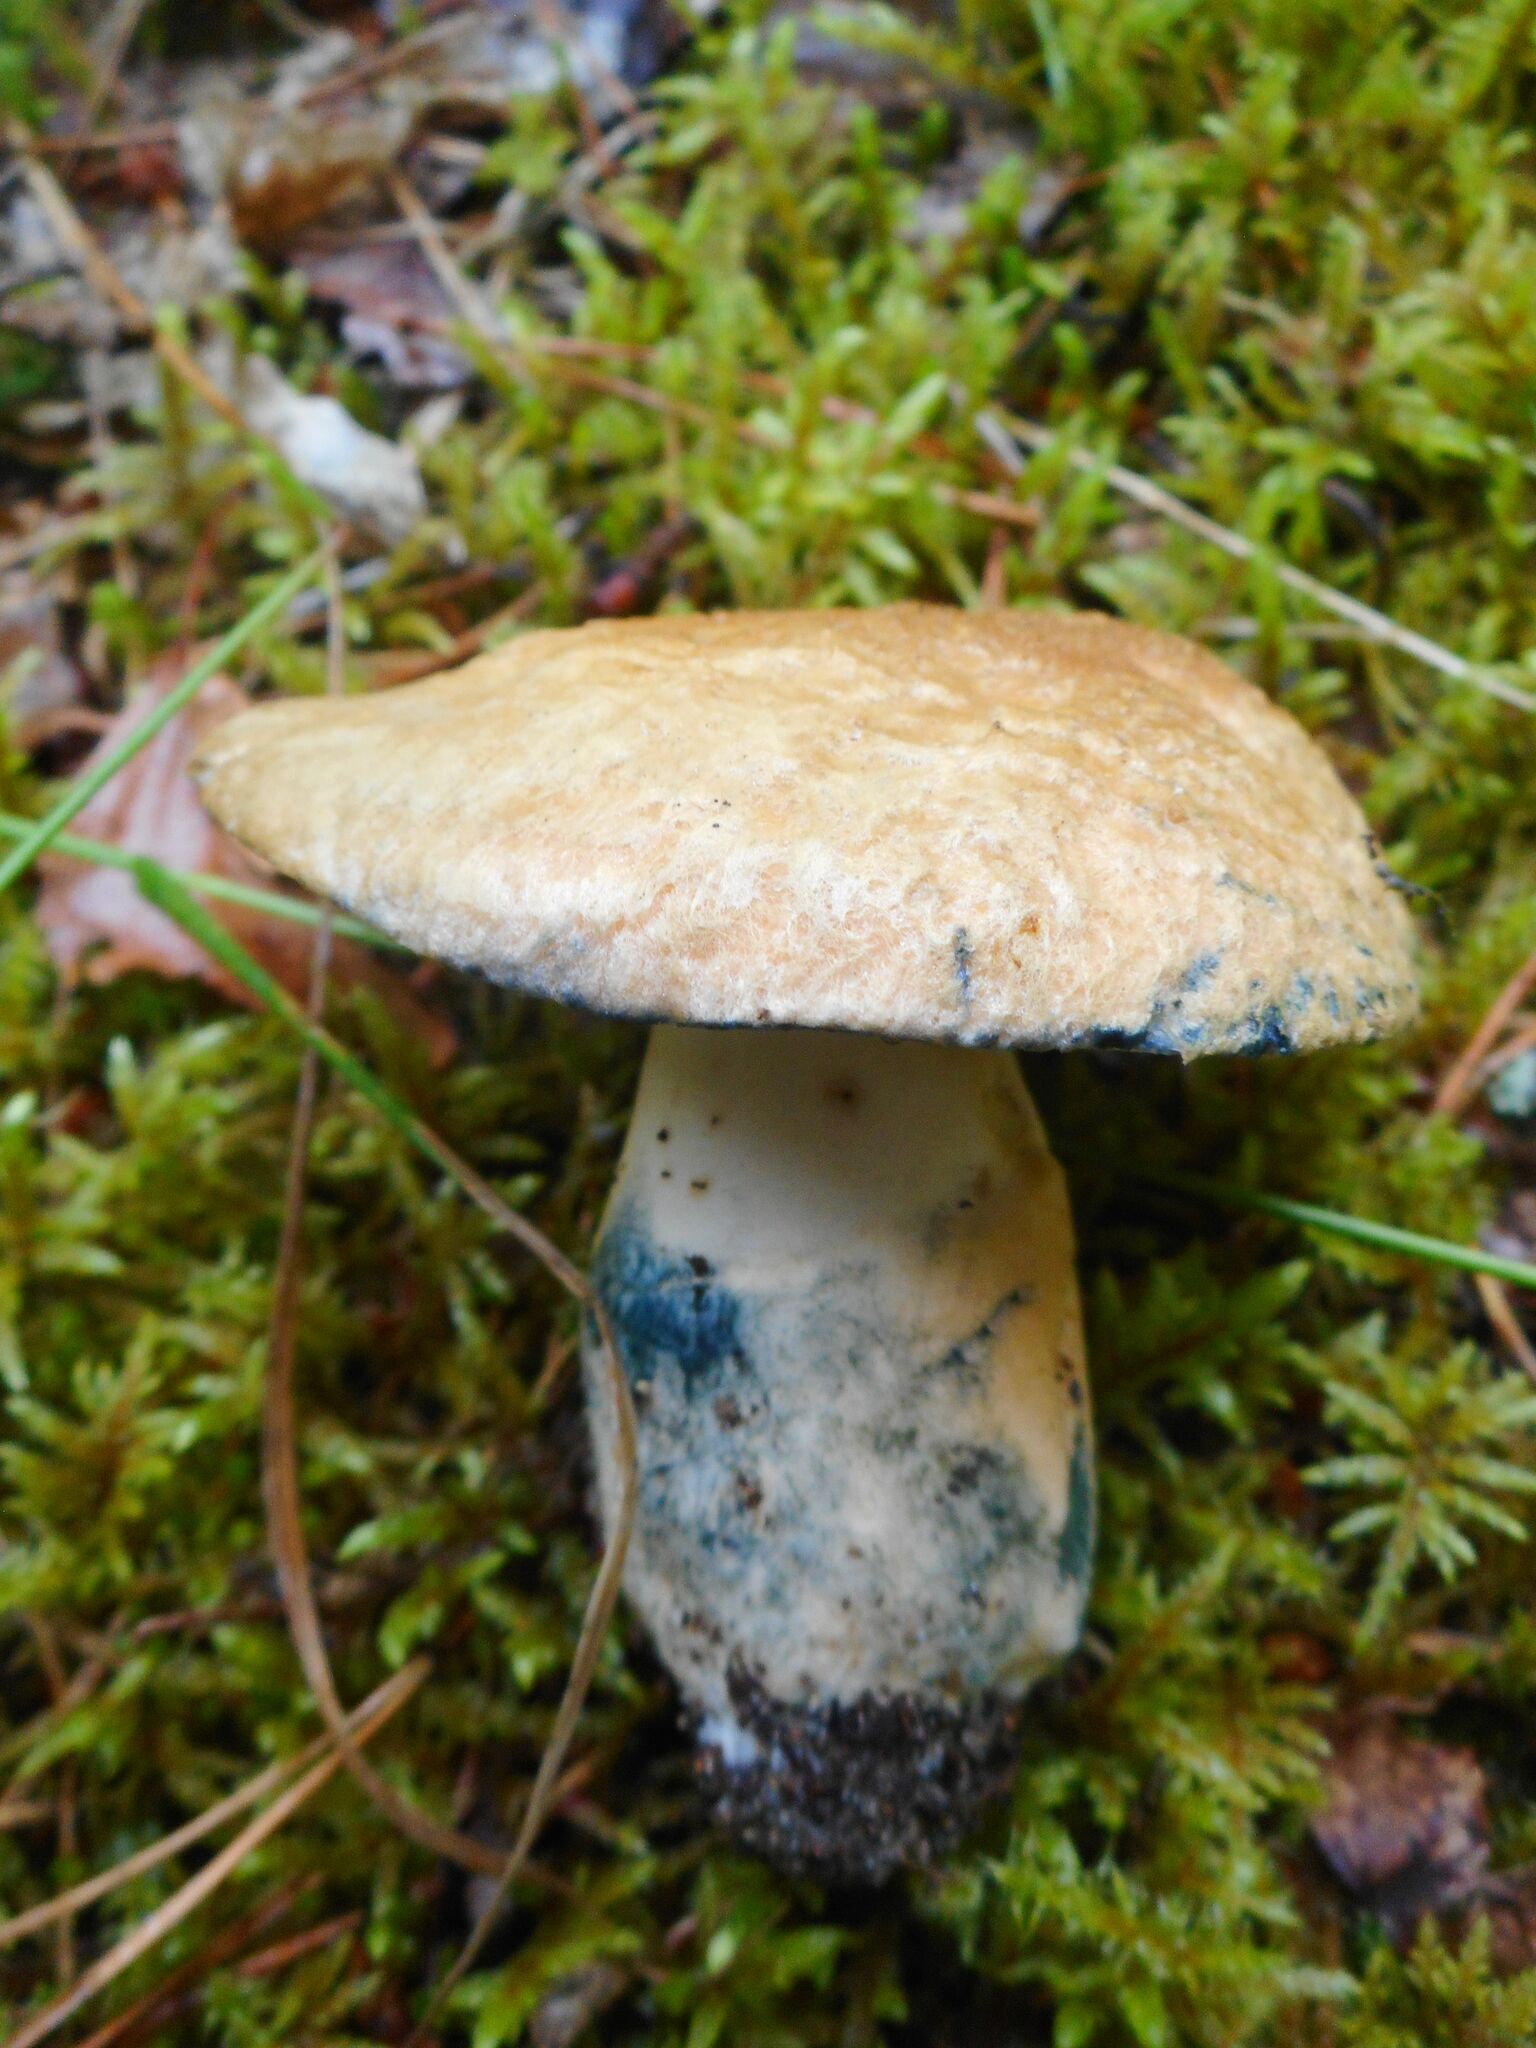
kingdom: Fungi
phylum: Basidiomycota
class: Agaricomycetes
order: Boletales
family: Gyroporaceae
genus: Gyroporus
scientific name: Gyroporus cyanescens
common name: Cornflower bolete
